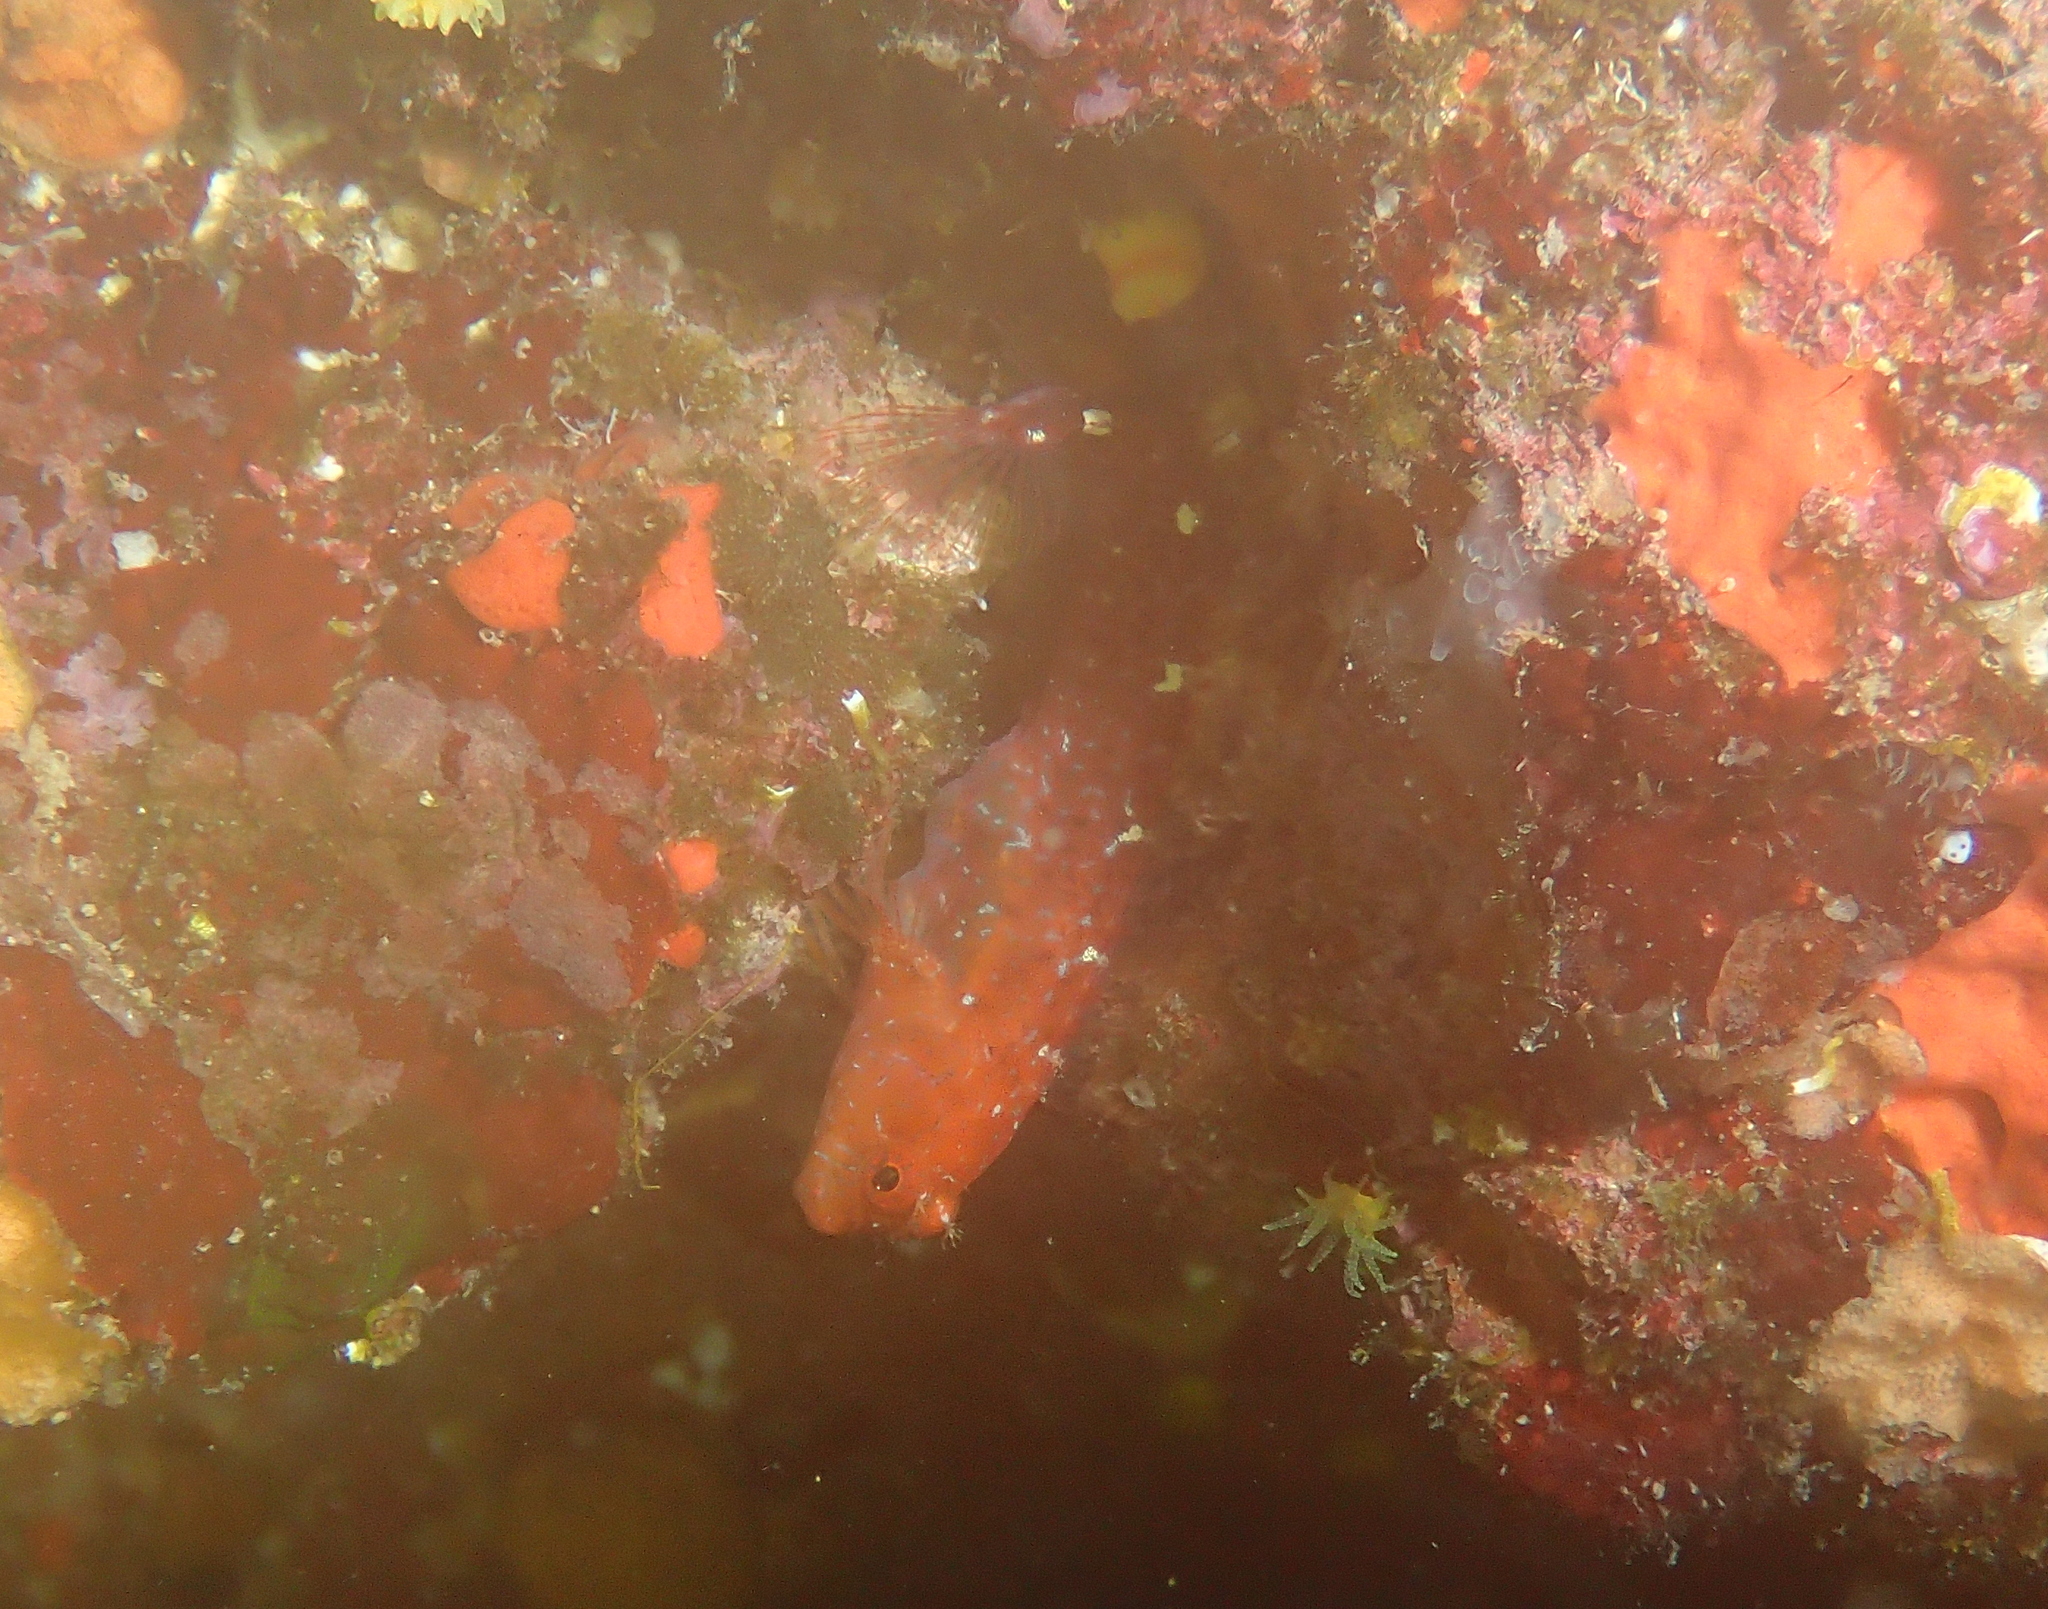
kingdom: Animalia
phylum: Chordata
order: Perciformes
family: Blenniidae
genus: Parablennius
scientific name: Parablennius zvonimiri
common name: Red blenny
